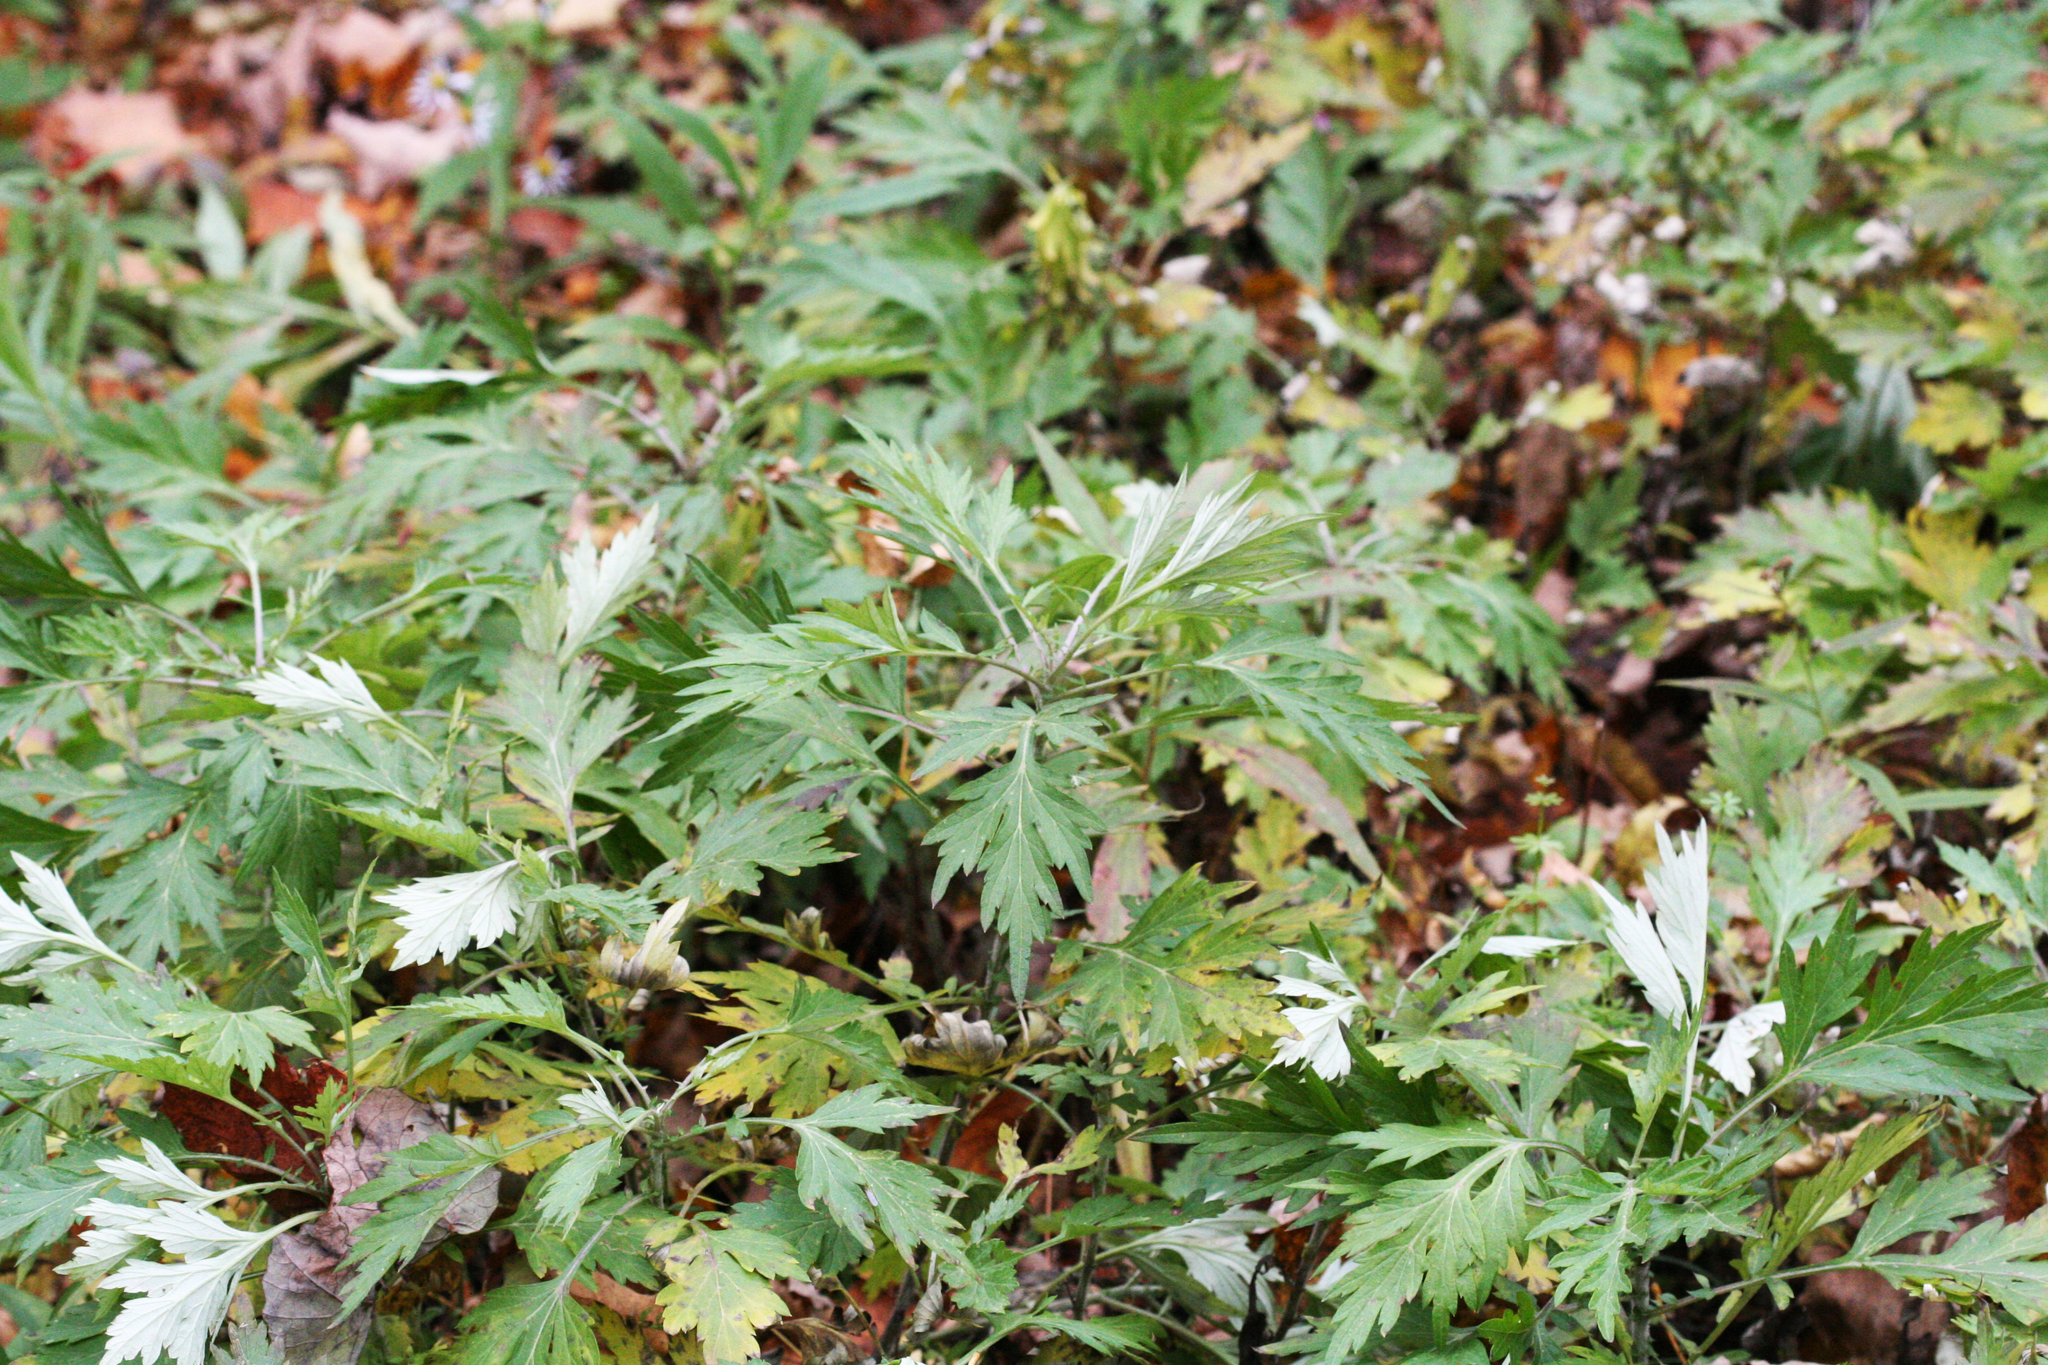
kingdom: Plantae
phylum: Tracheophyta
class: Magnoliopsida
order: Asterales
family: Asteraceae
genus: Artemisia
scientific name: Artemisia vulgaris
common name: Mugwort
